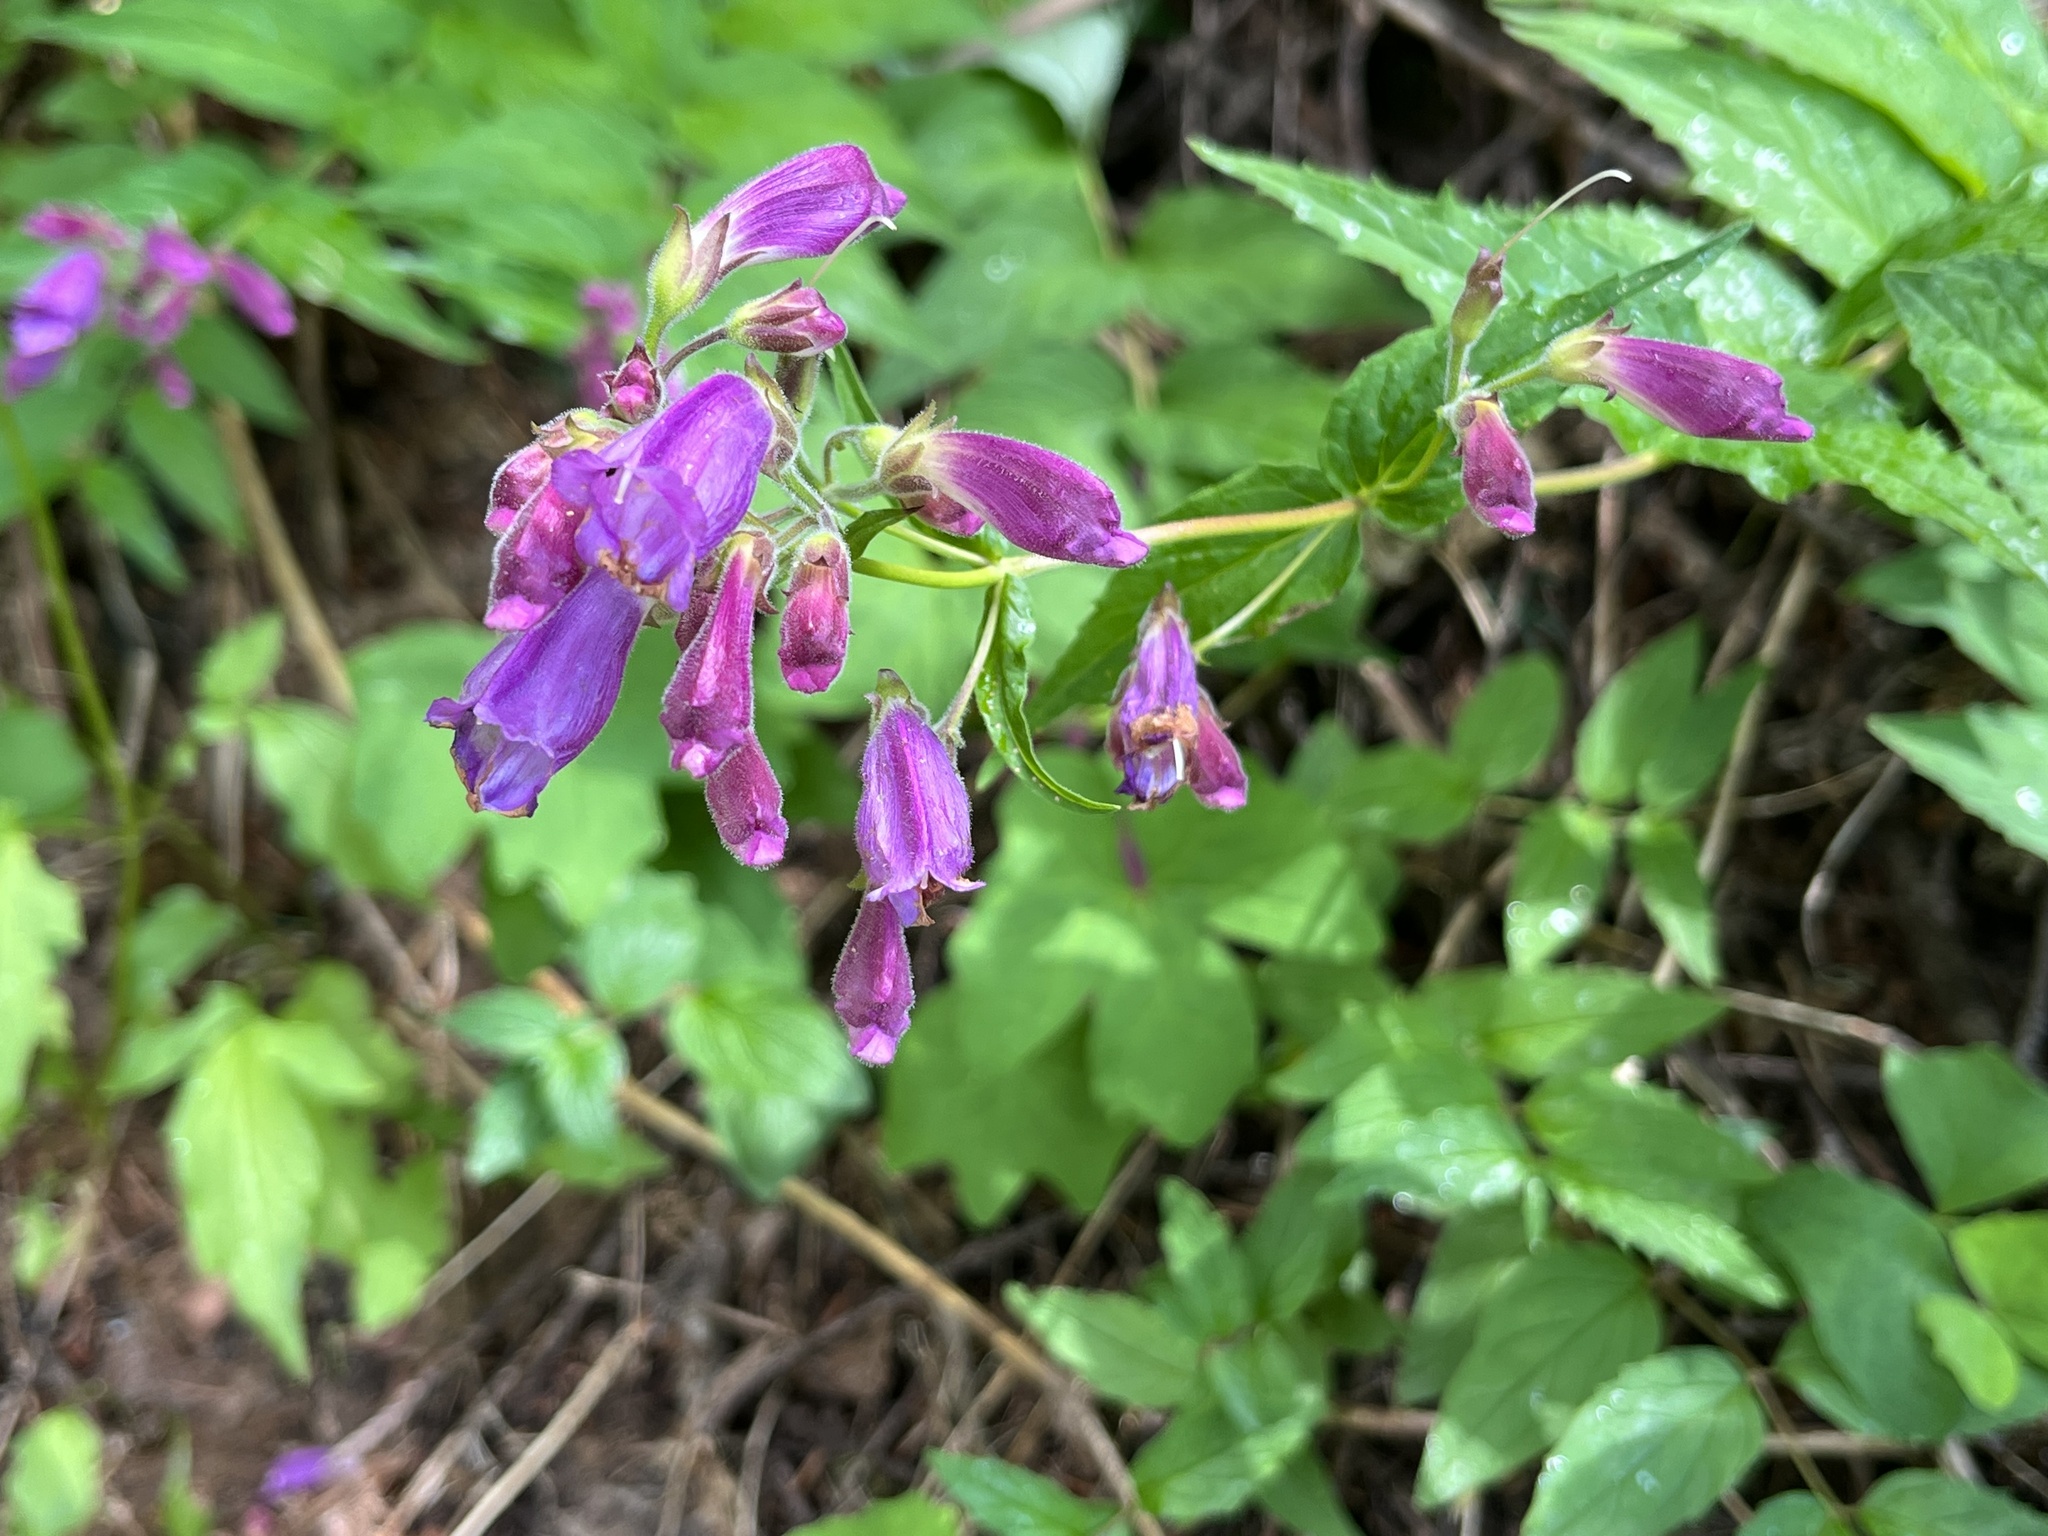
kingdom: Plantae
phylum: Tracheophyta
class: Magnoliopsida
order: Lamiales
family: Plantaginaceae
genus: Nothochelone
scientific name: Nothochelone nemorosa
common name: Woodland beardtongue
